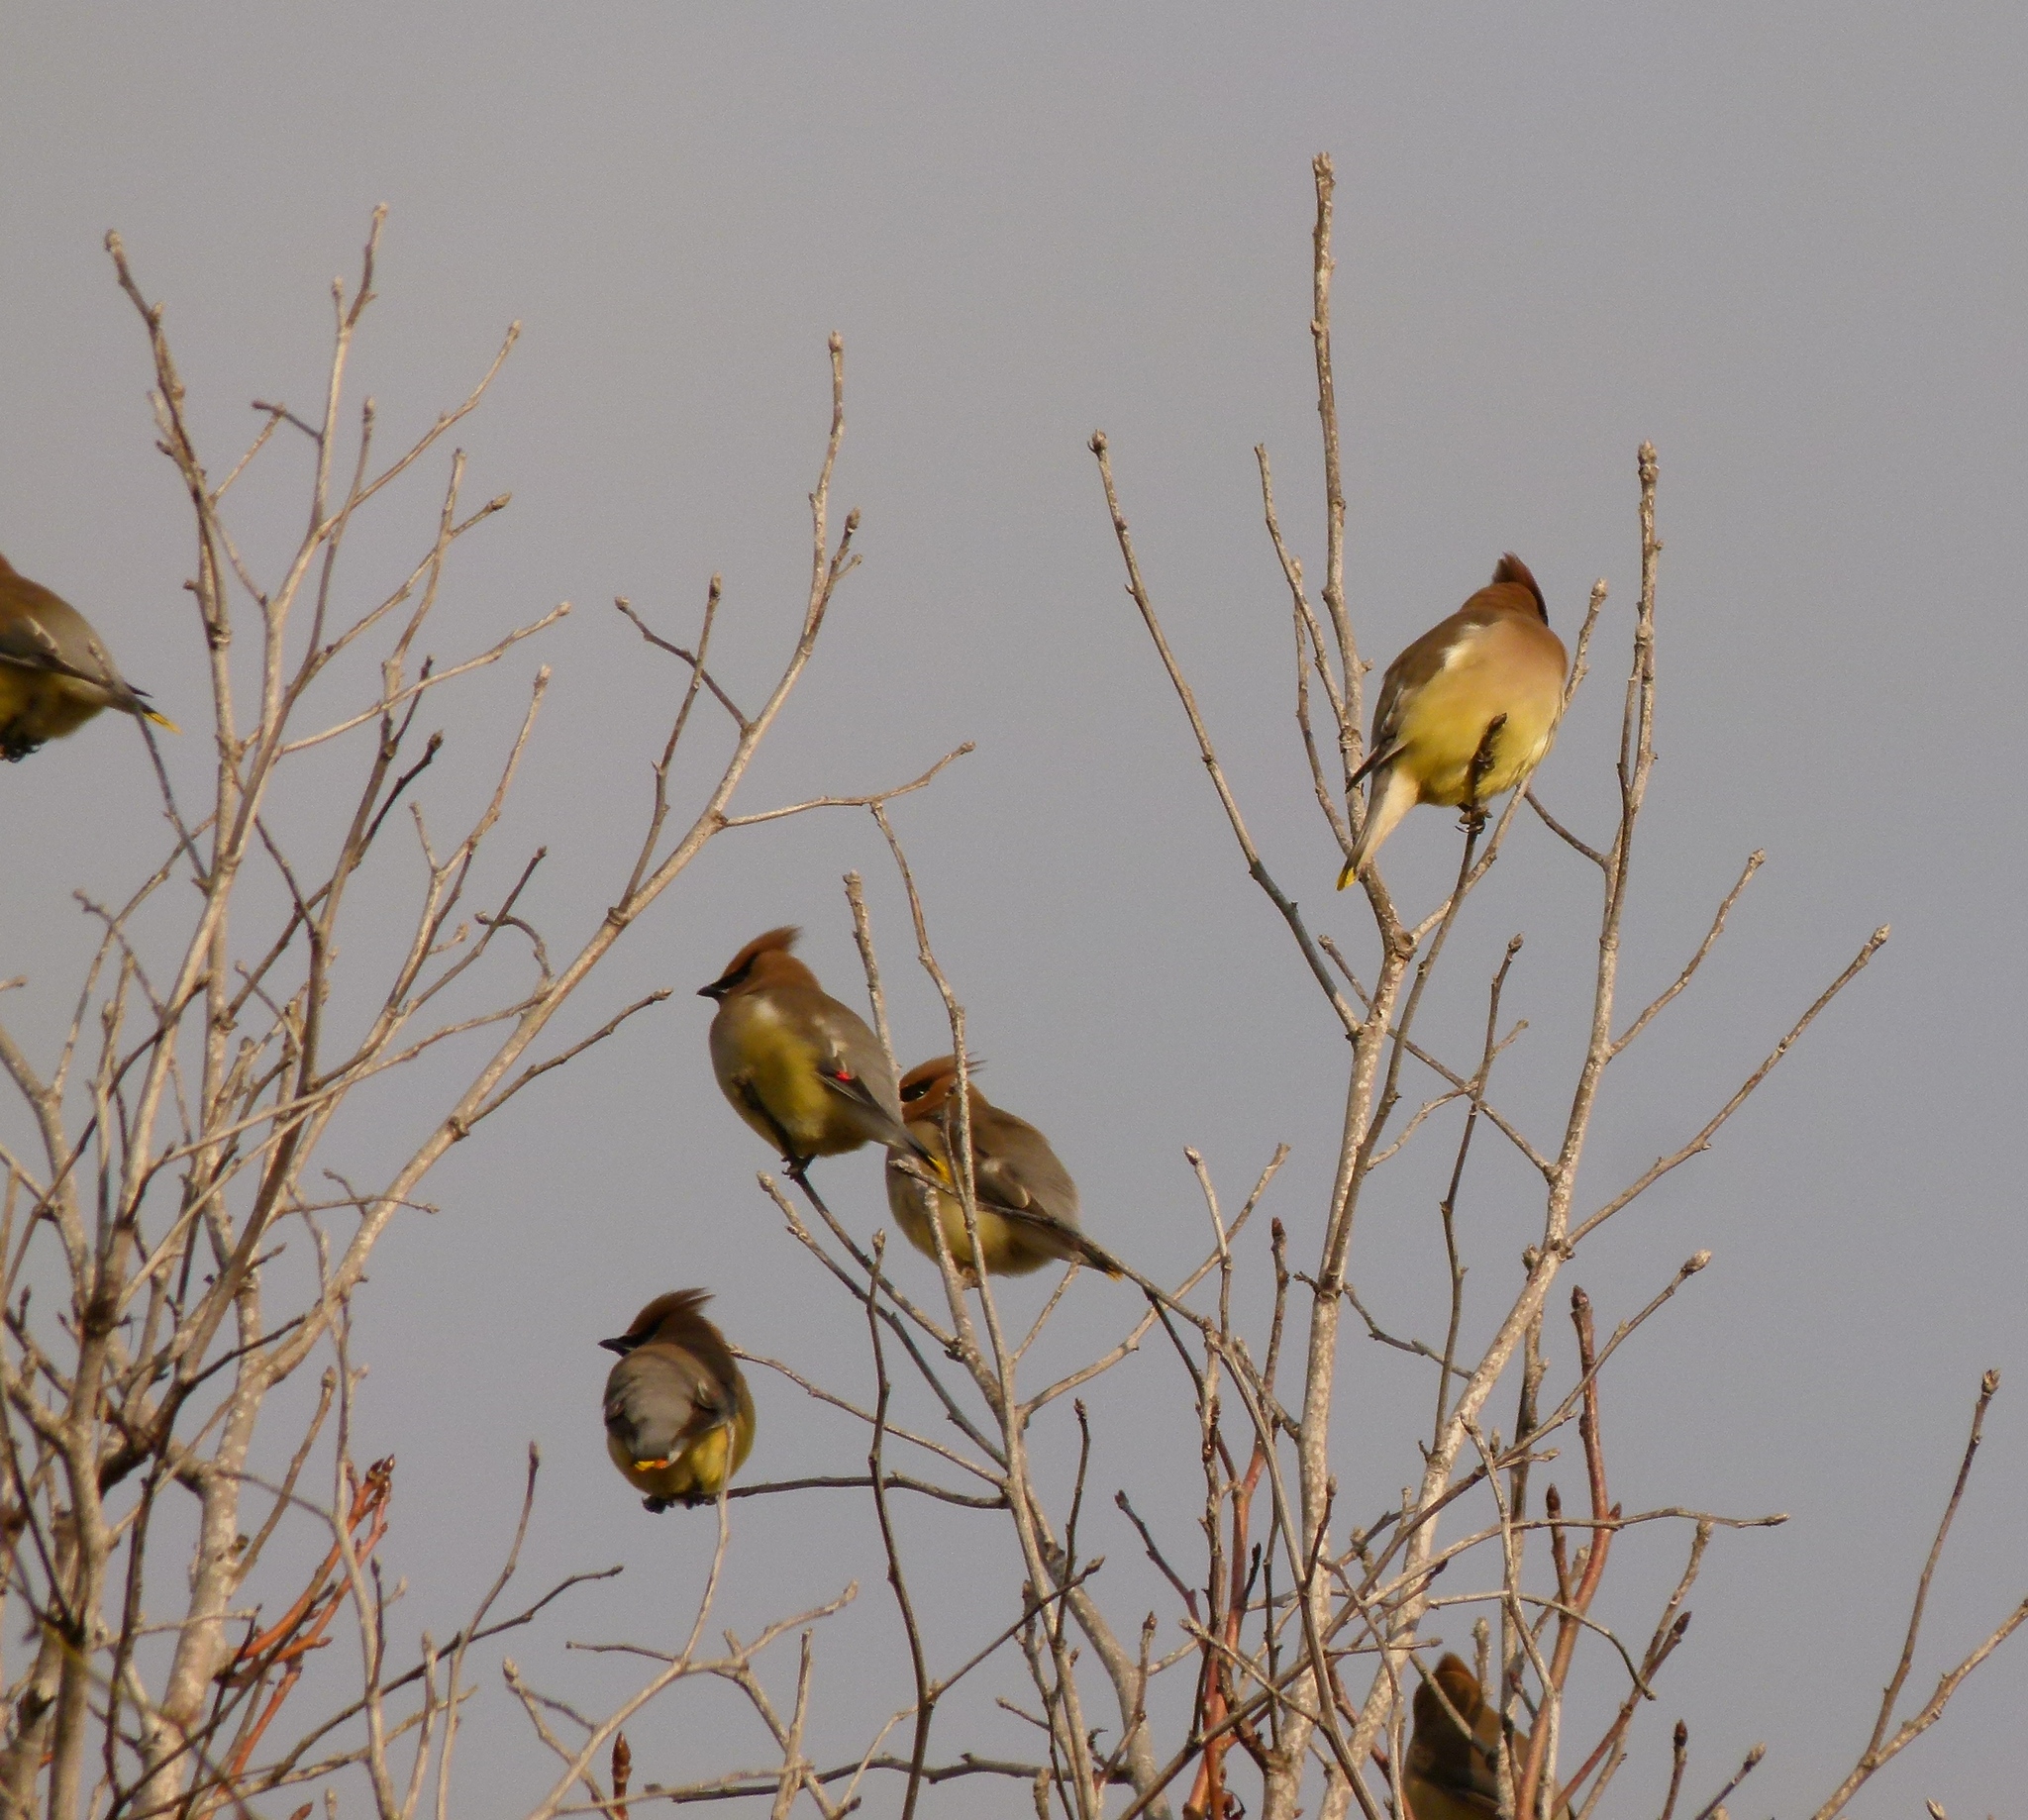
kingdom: Animalia
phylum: Chordata
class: Aves
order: Passeriformes
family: Bombycillidae
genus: Bombycilla
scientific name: Bombycilla cedrorum
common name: Cedar waxwing
